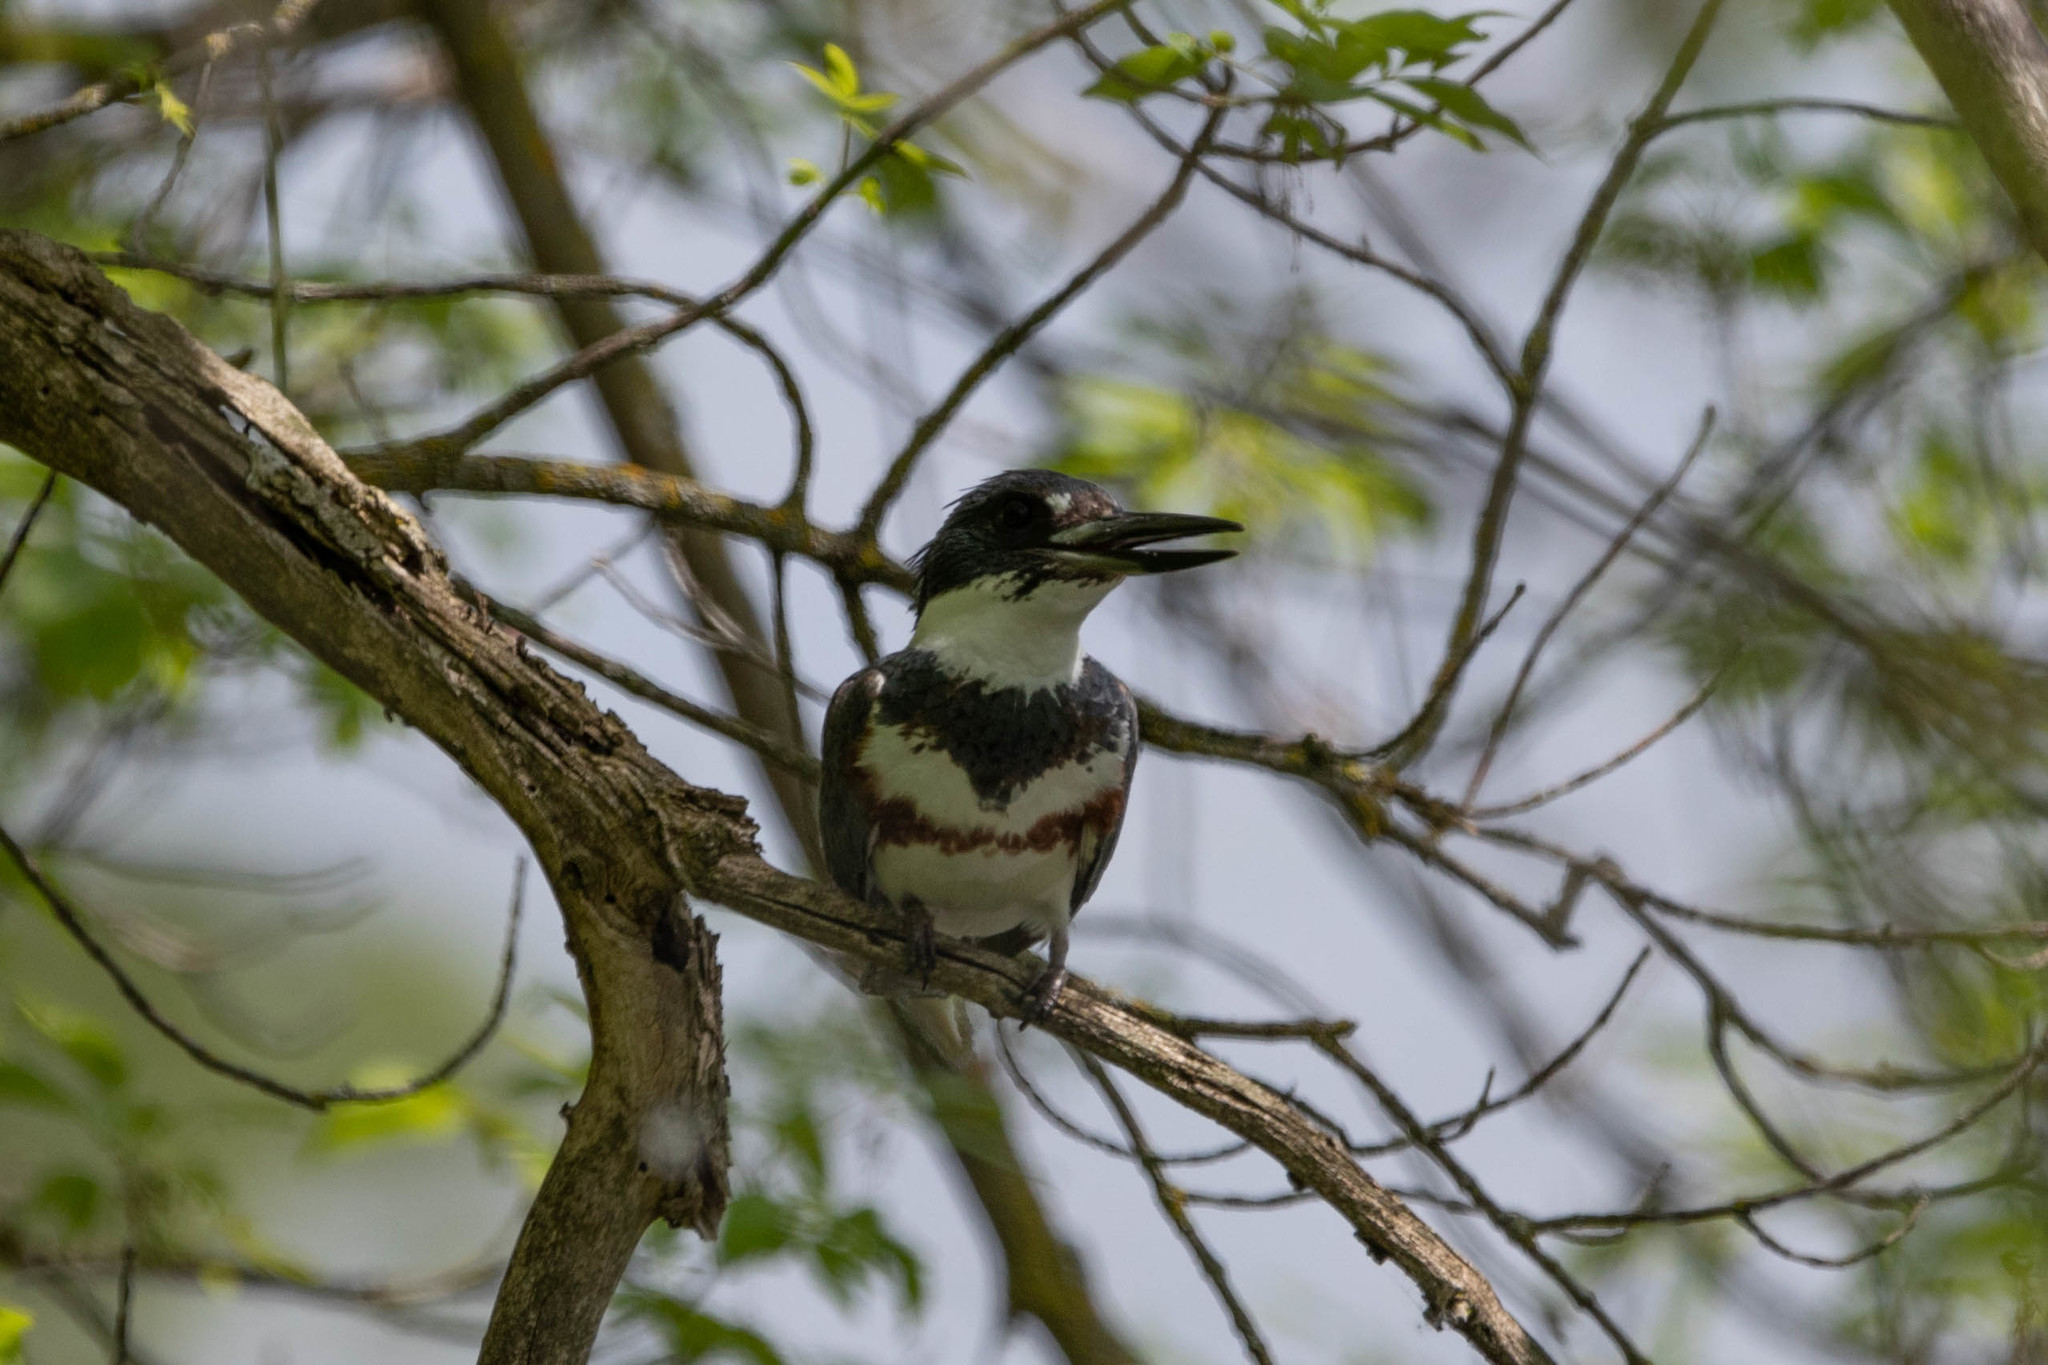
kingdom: Animalia
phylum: Chordata
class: Aves
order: Coraciiformes
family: Alcedinidae
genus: Megaceryle
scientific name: Megaceryle alcyon
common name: Belted kingfisher
